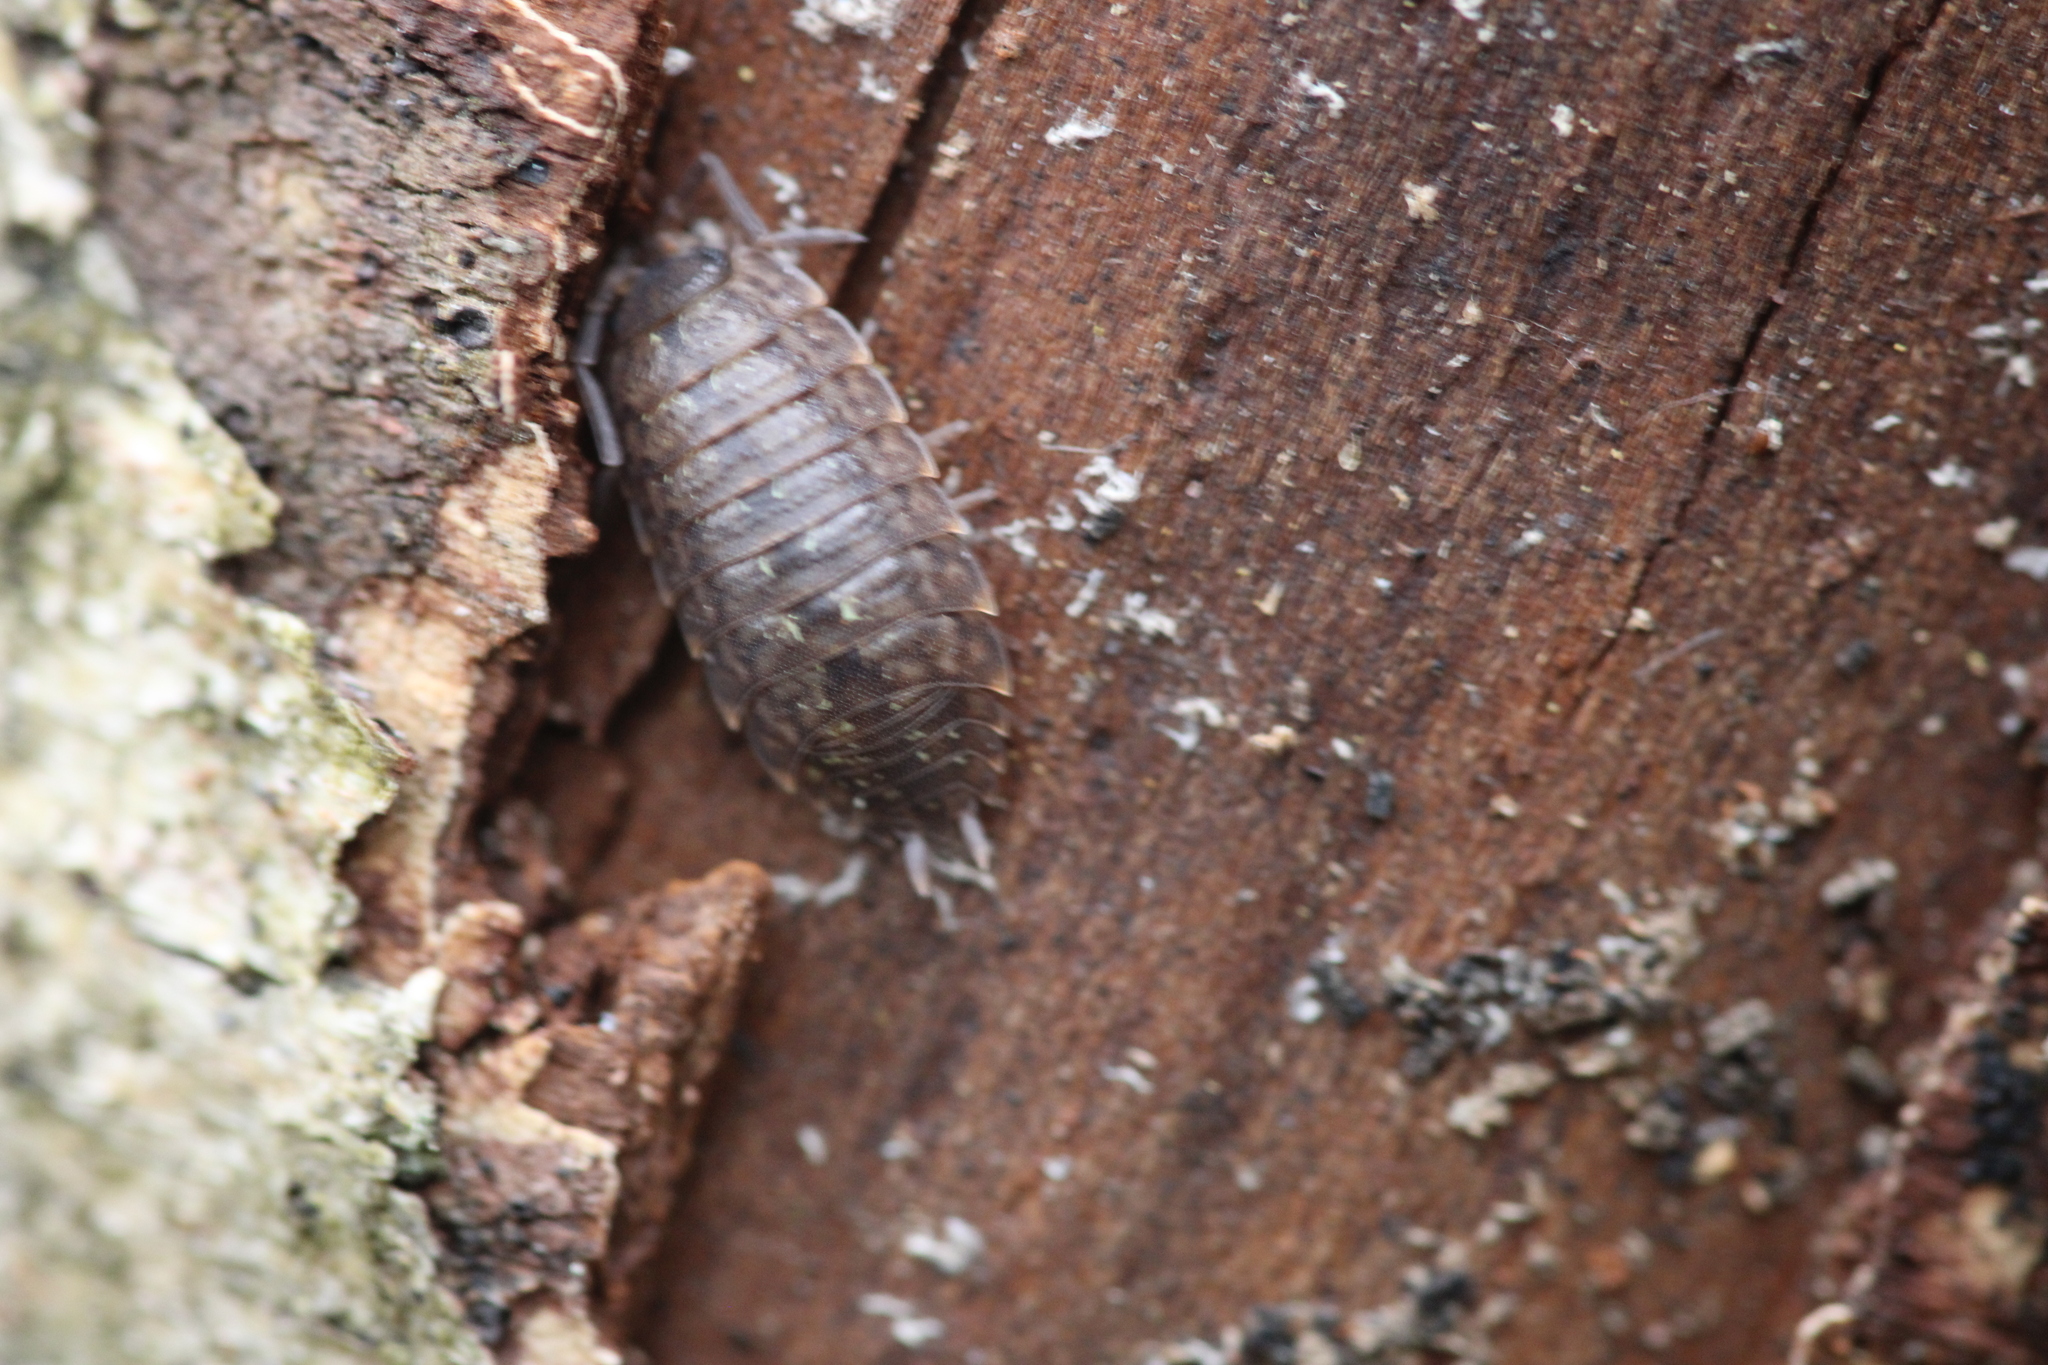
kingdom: Animalia
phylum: Arthropoda
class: Malacostraca
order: Isopoda
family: Porcellionidae
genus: Porcellio
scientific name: Porcellio monticola
